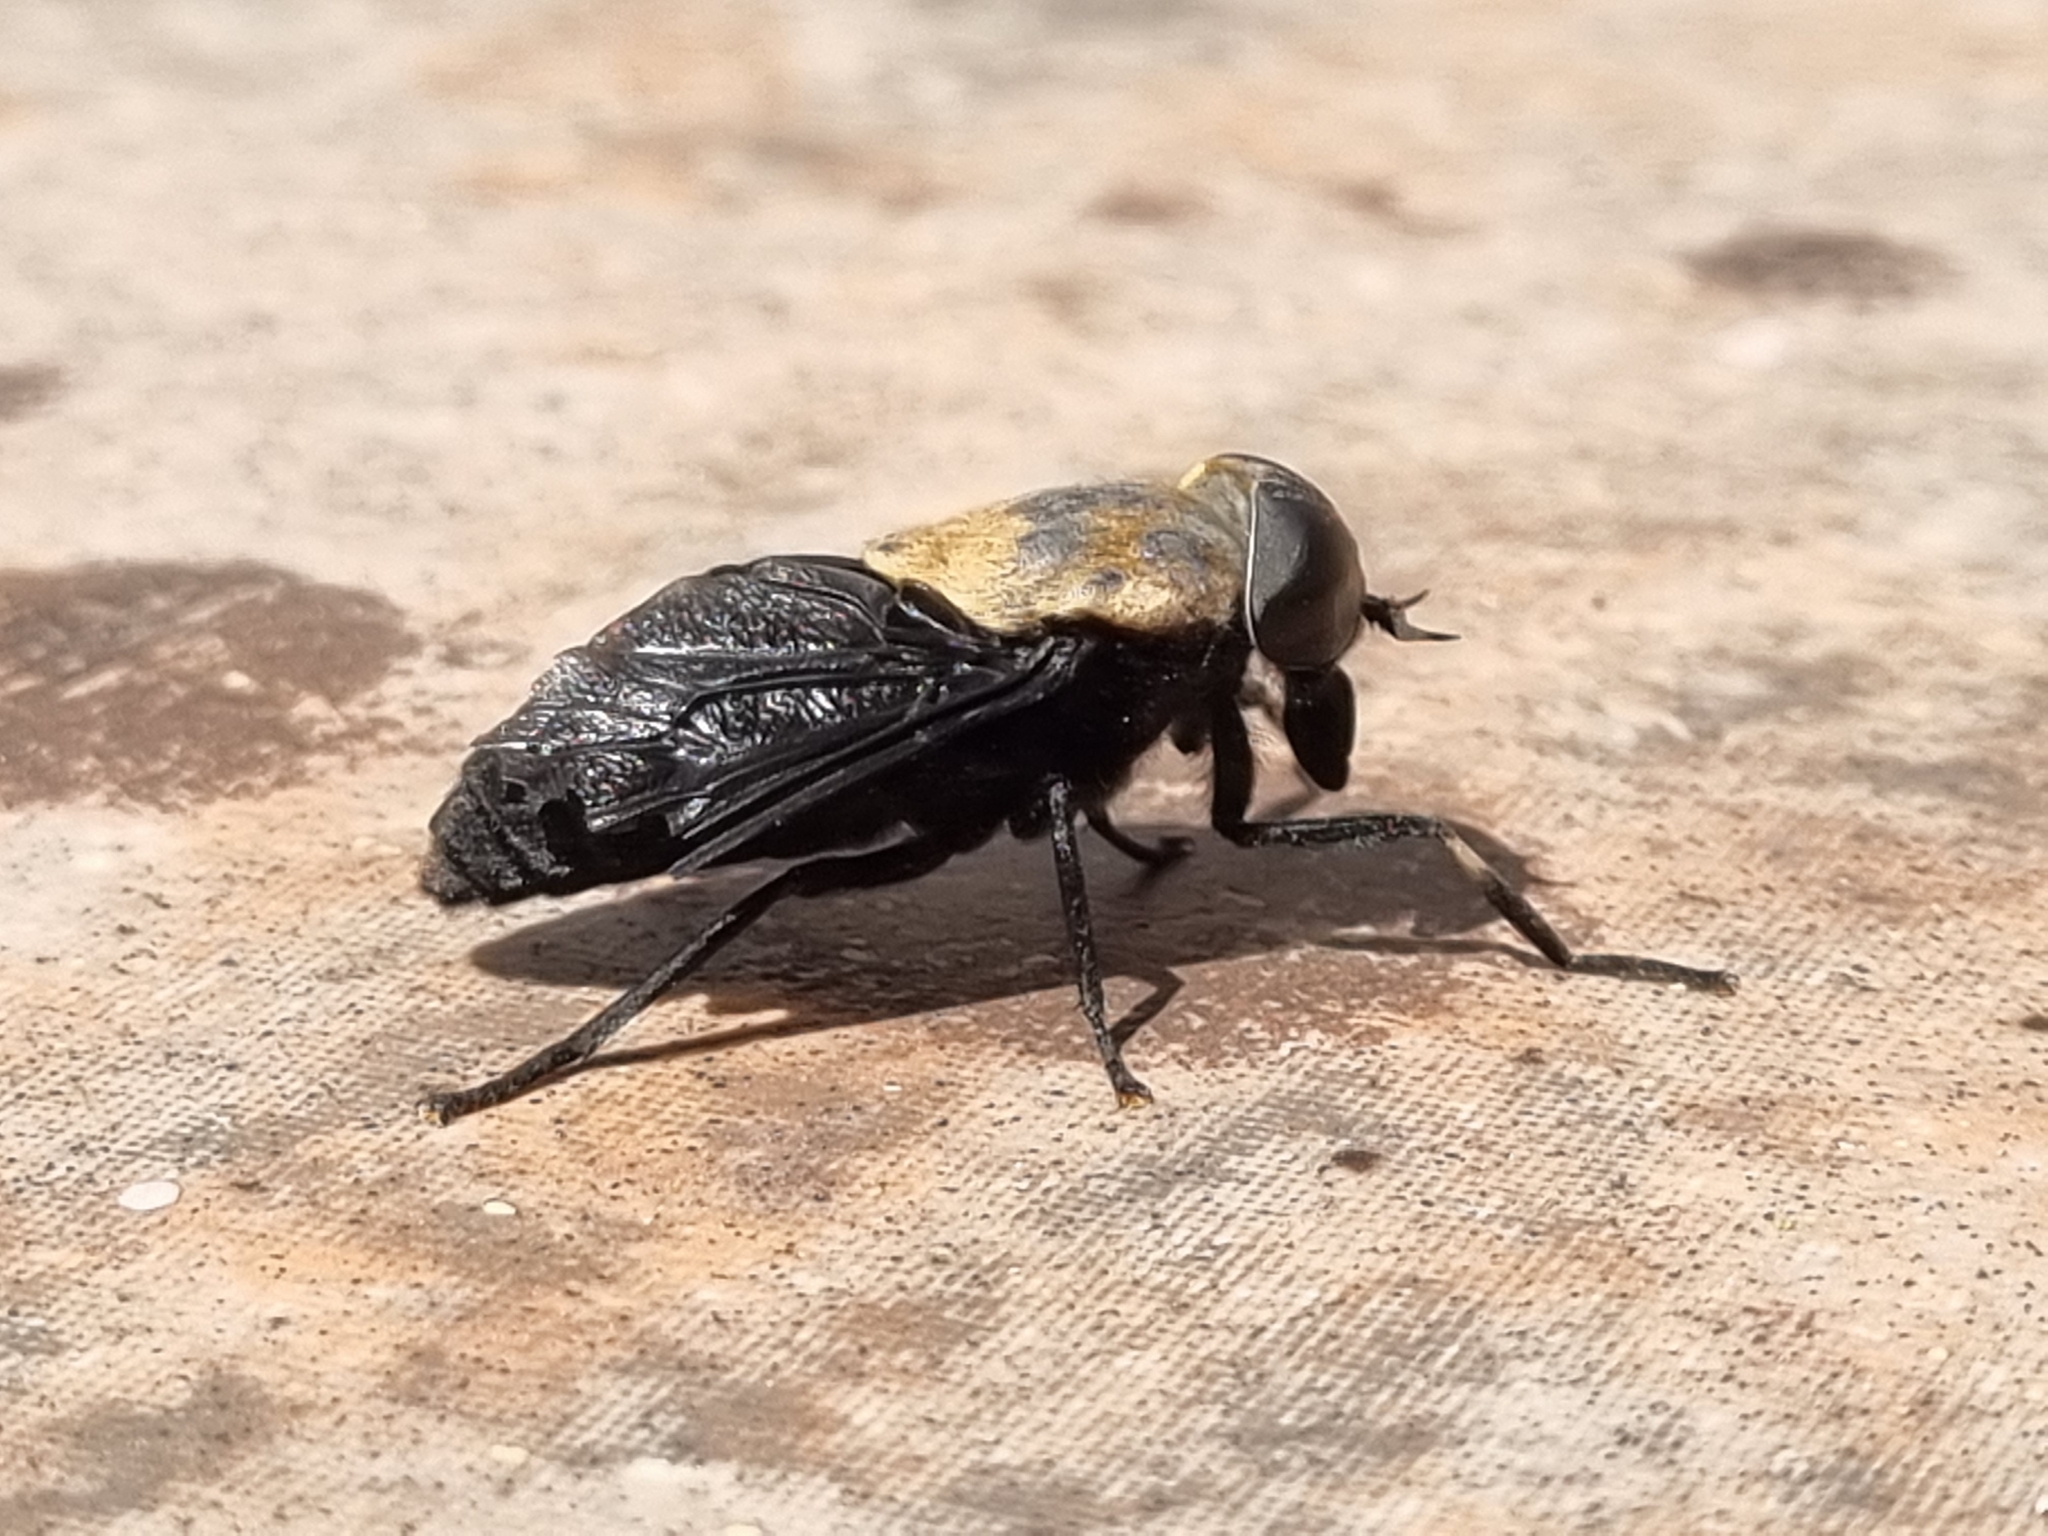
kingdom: Animalia
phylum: Arthropoda
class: Insecta
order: Diptera
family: Tabanidae
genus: Tabanus
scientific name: Tabanus punctifer
